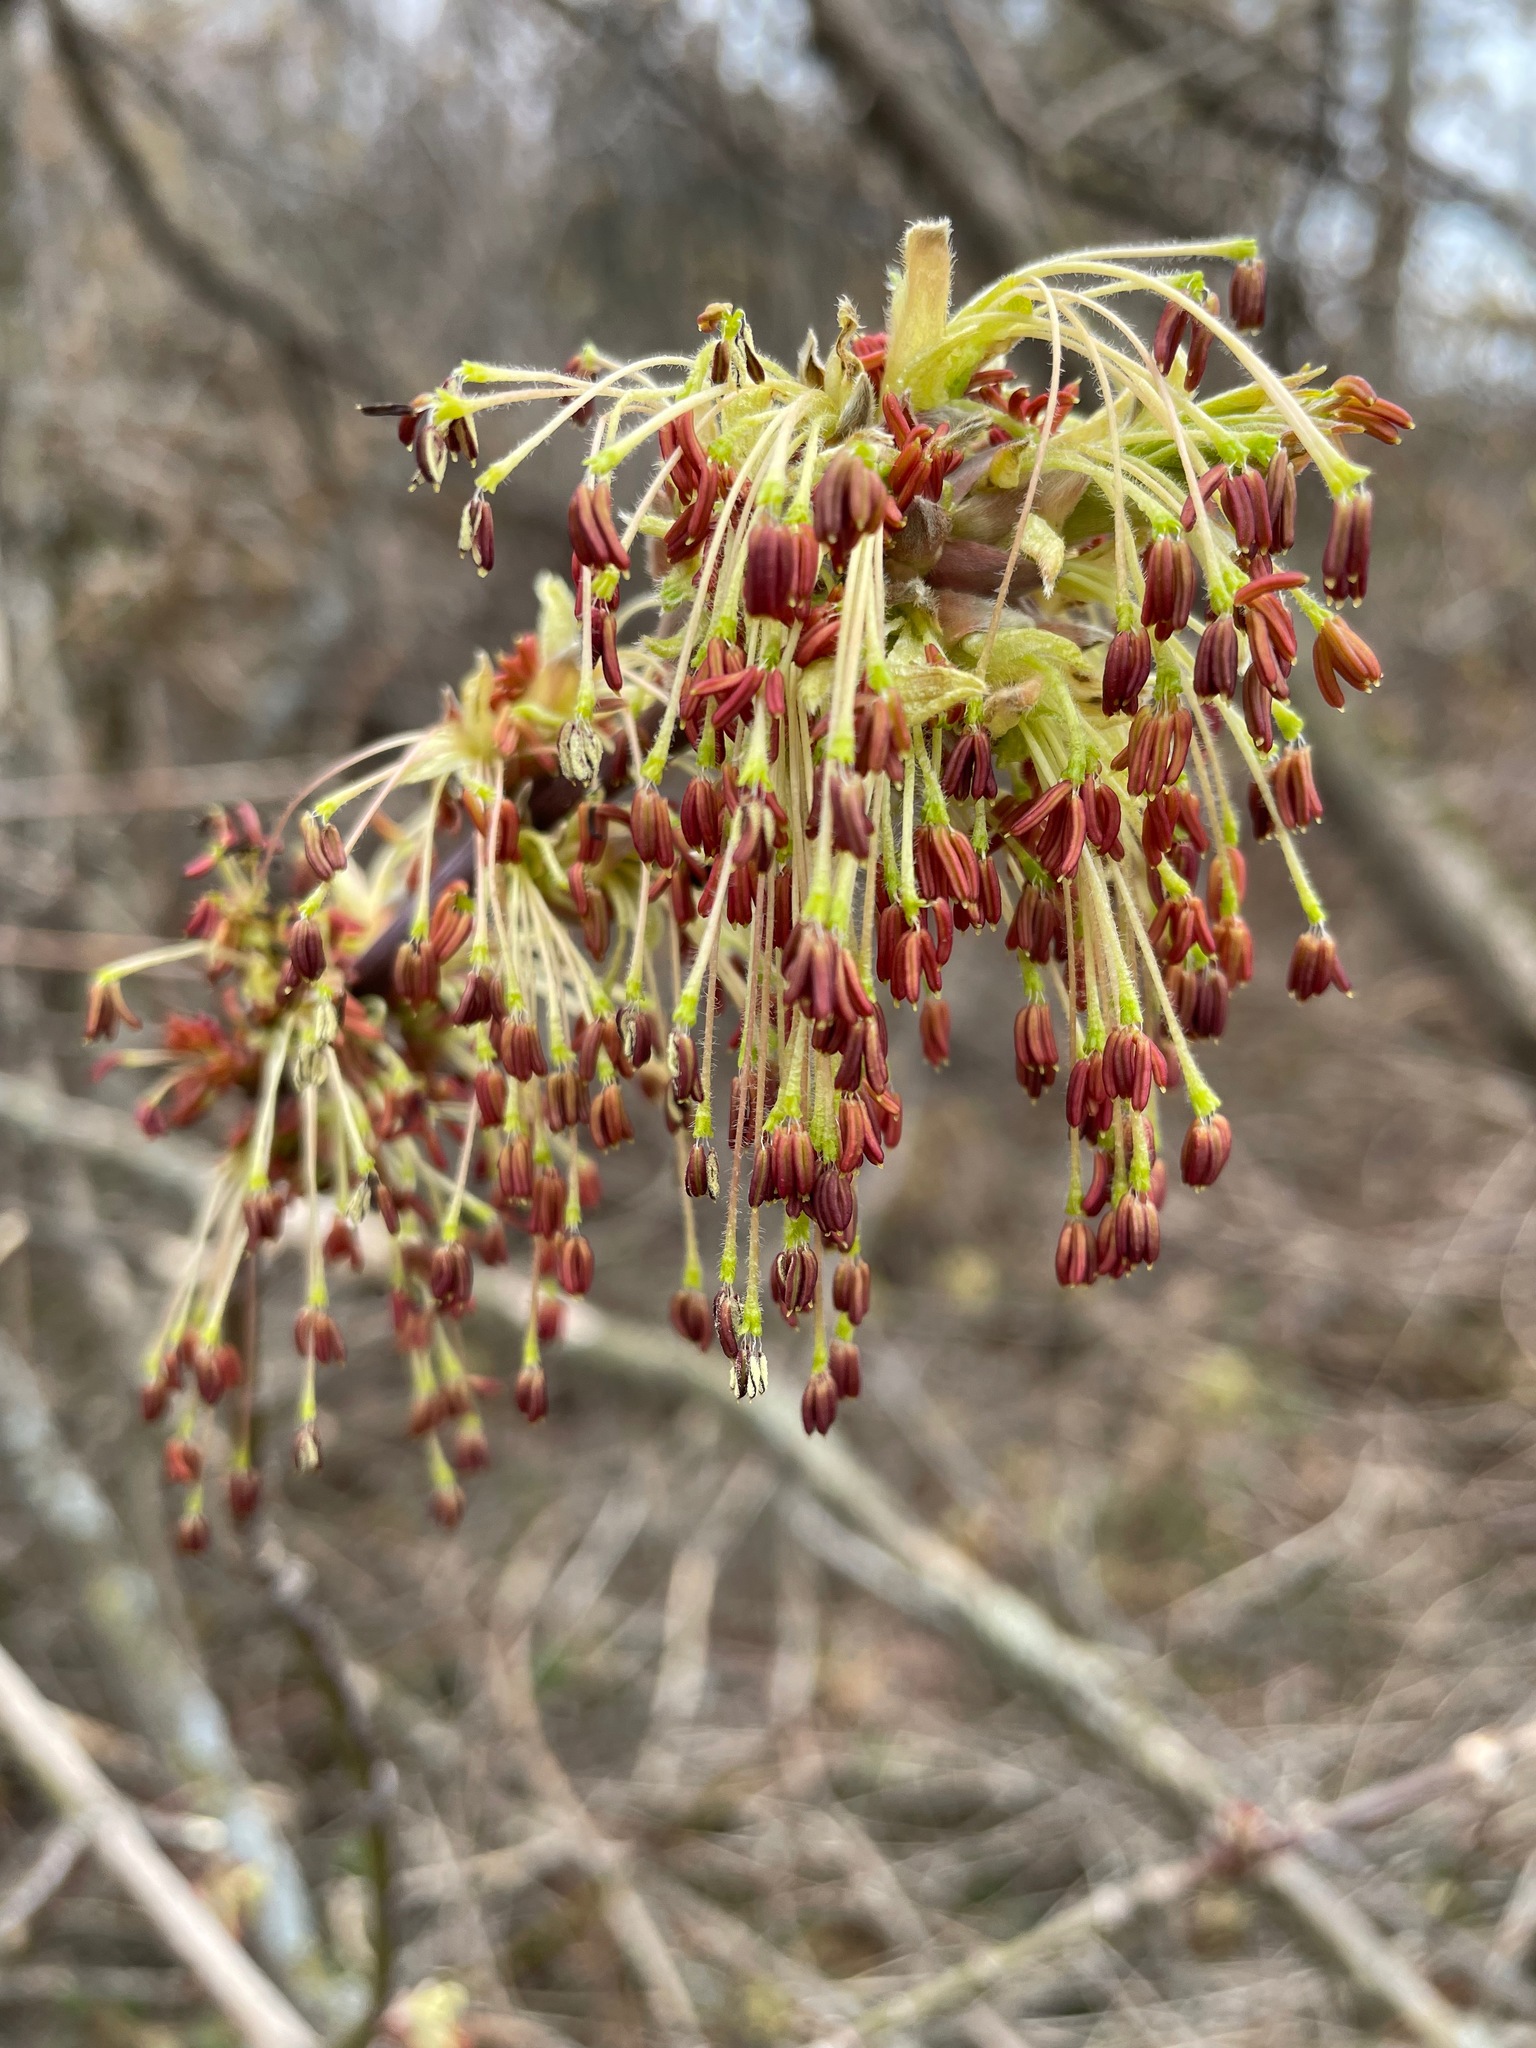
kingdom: Plantae
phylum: Tracheophyta
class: Magnoliopsida
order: Sapindales
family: Sapindaceae
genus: Acer
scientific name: Acer negundo
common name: Ashleaf maple
